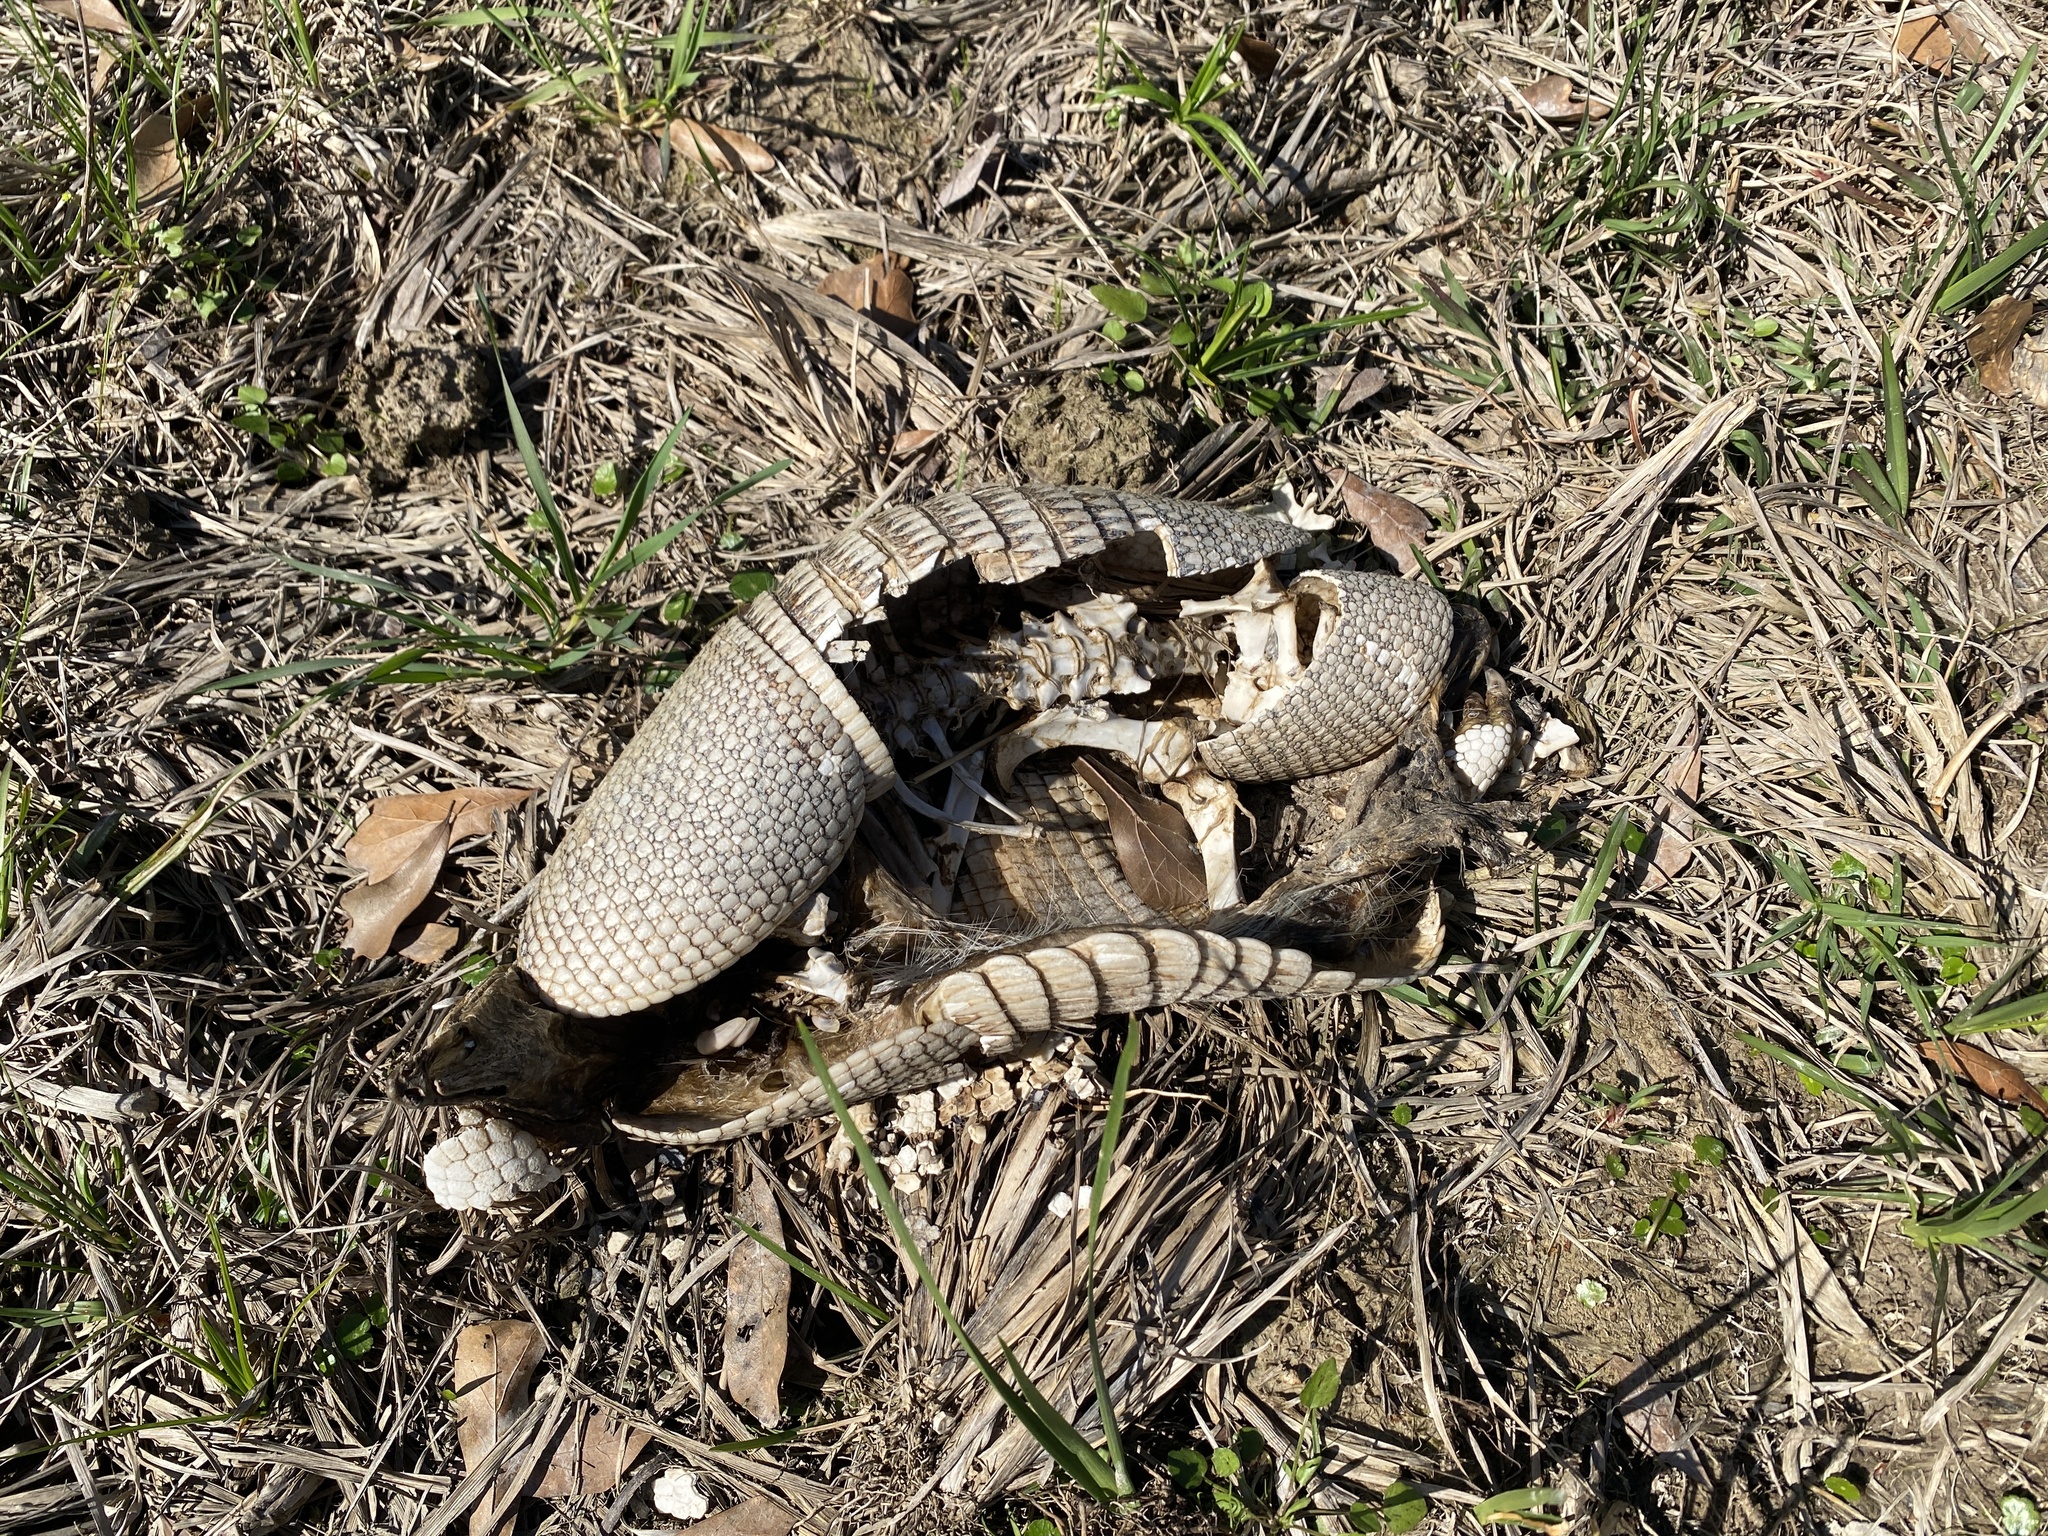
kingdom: Animalia
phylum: Chordata
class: Mammalia
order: Cingulata
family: Dasypodidae
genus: Dasypus
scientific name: Dasypus novemcinctus
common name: Nine-banded armadillo
